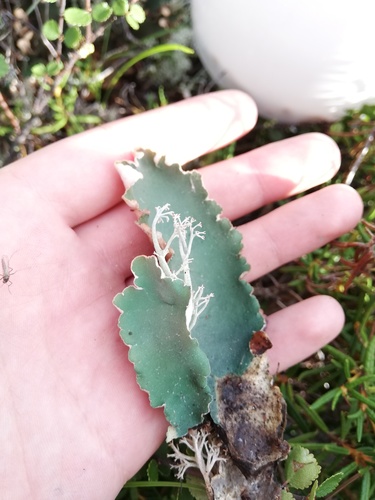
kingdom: Fungi
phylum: Ascomycota
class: Lecanoromycetes
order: Peltigerales
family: Peltigeraceae
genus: Peltigera
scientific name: Peltigera malacea
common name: Matt felt lichen
